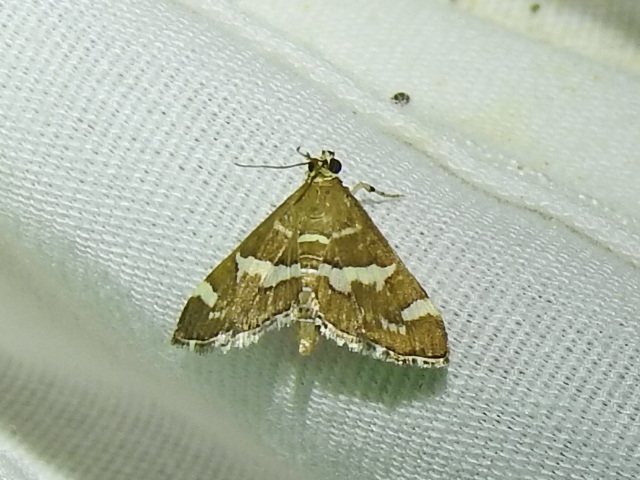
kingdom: Animalia
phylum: Arthropoda
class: Insecta
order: Lepidoptera
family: Crambidae
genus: Spoladea
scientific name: Spoladea recurvalis
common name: Beet webworm moth
